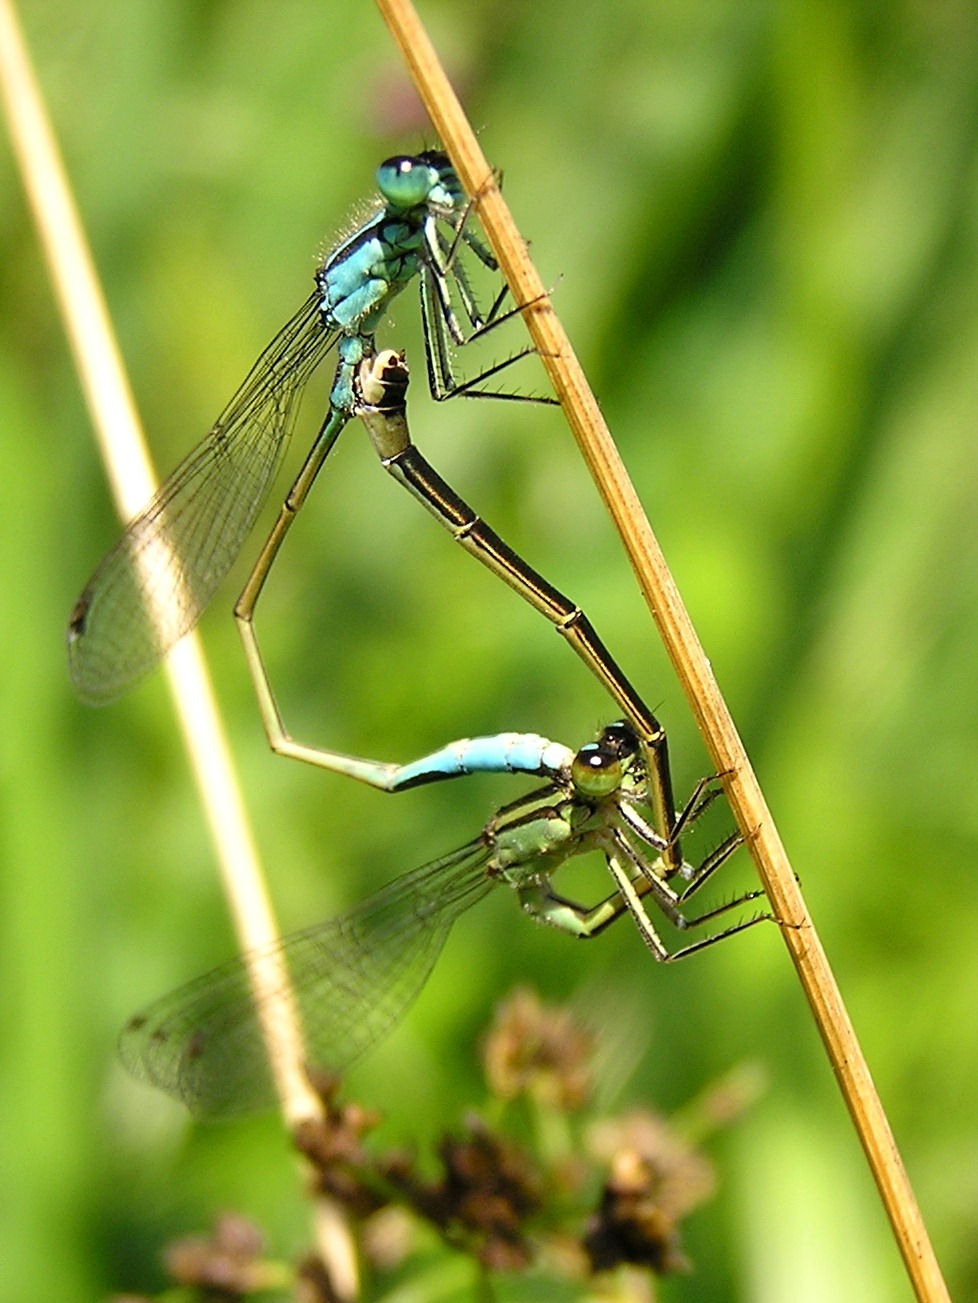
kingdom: Animalia
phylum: Arthropoda
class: Insecta
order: Odonata
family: Coenagrionidae
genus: Ischnura
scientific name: Ischnura elegans
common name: Blue-tailed damselfly
